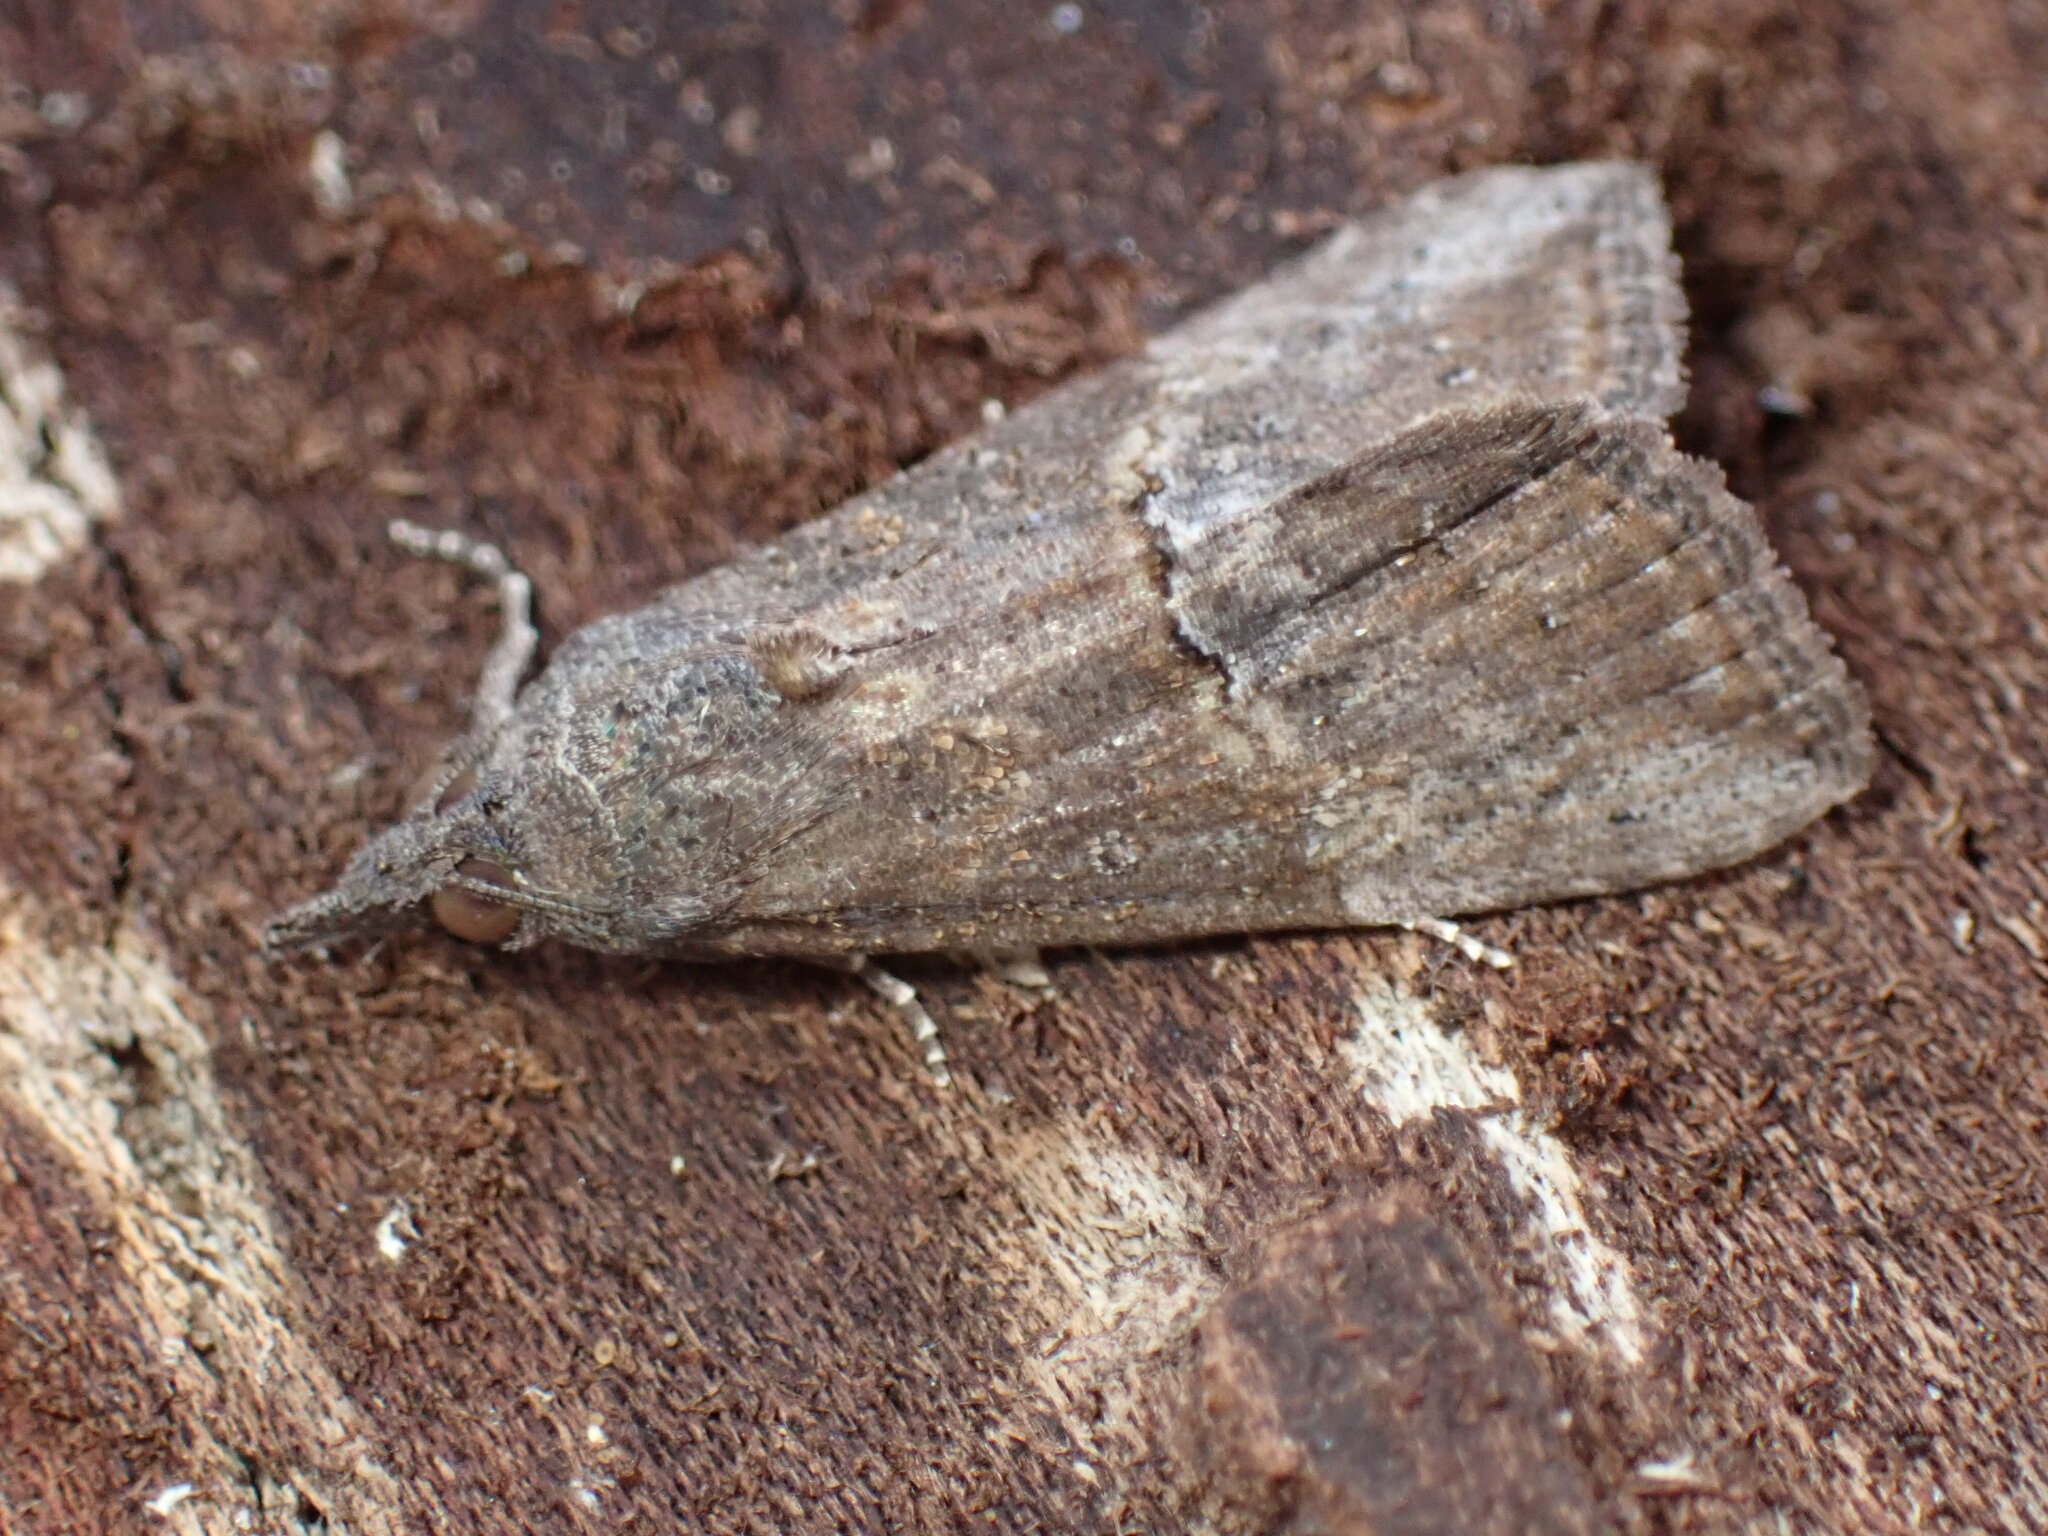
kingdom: Animalia
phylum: Arthropoda
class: Insecta
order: Lepidoptera
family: Erebidae
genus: Hypena
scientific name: Hypena scabra
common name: Green cloverworm
